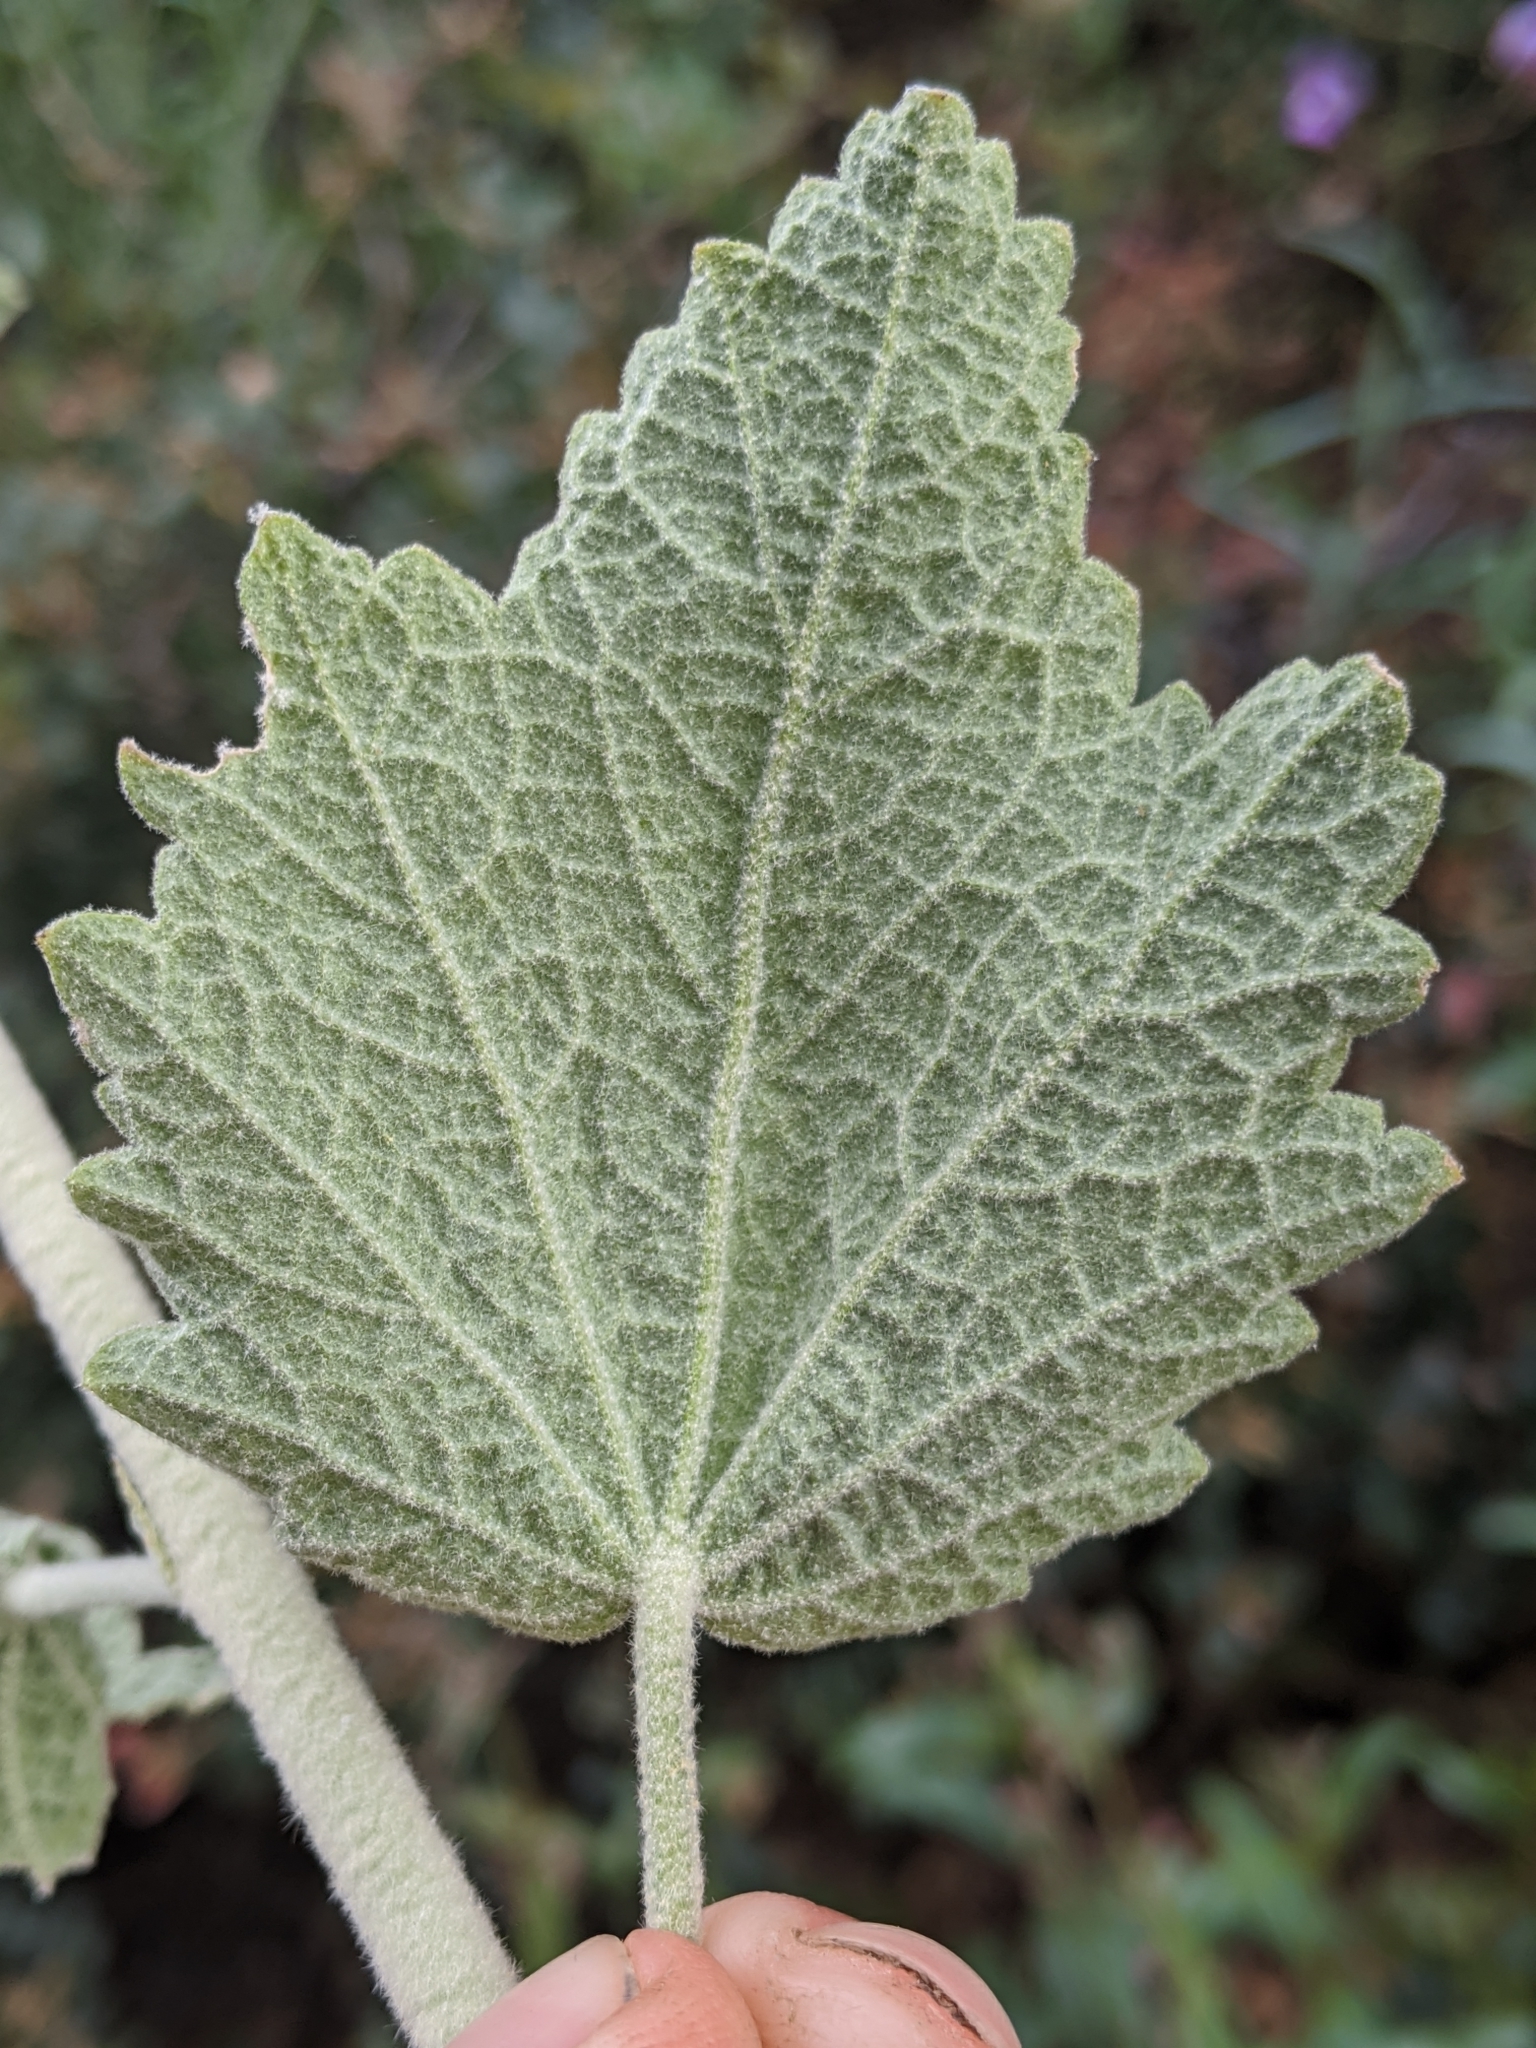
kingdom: Plantae
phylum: Tracheophyta
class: Magnoliopsida
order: Malvales
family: Malvaceae
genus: Malacothamnus
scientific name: Malacothamnus aboriginum
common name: Indian valley bush-mallow
